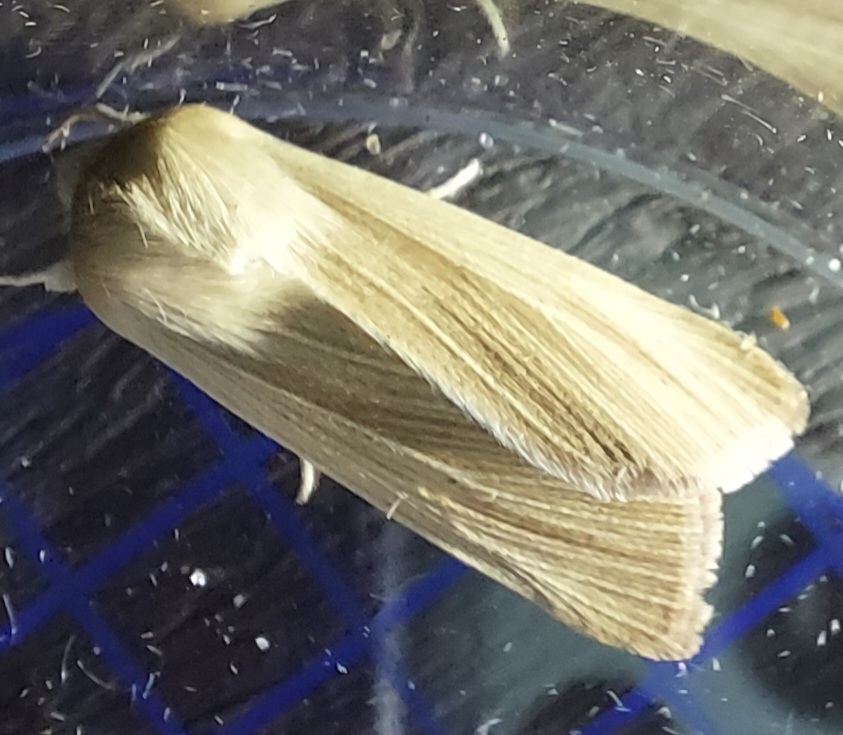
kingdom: Animalia
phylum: Arthropoda
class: Insecta
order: Lepidoptera
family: Noctuidae
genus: Mythimna
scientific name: Mythimna pallens
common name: Common wainscot
